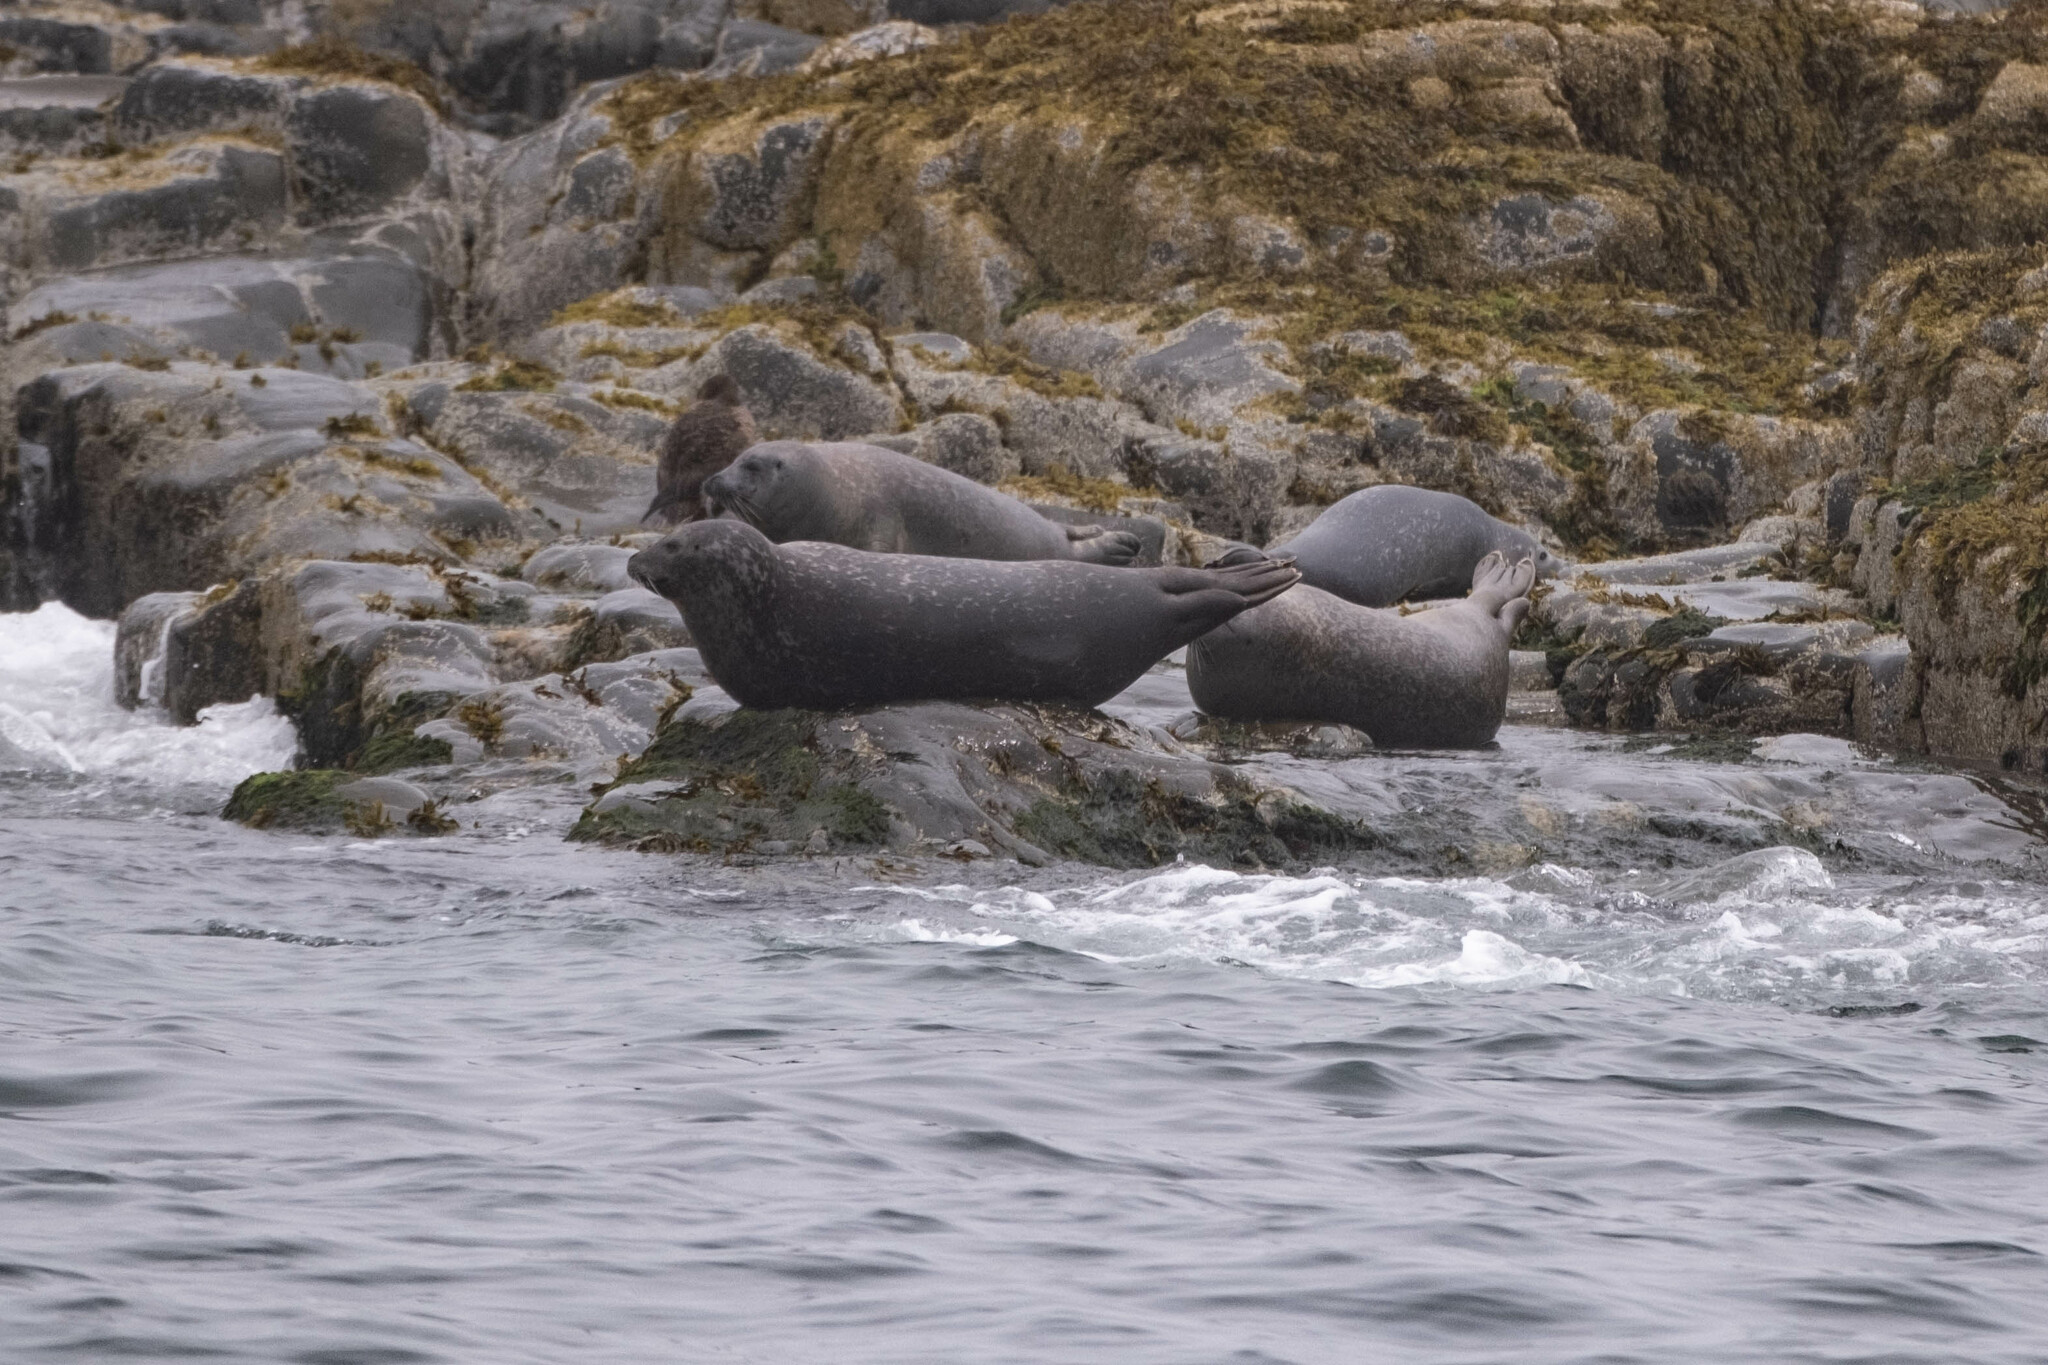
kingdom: Animalia
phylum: Chordata
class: Mammalia
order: Carnivora
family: Phocidae
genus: Phoca
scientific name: Phoca vitulina
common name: Harbor seal
